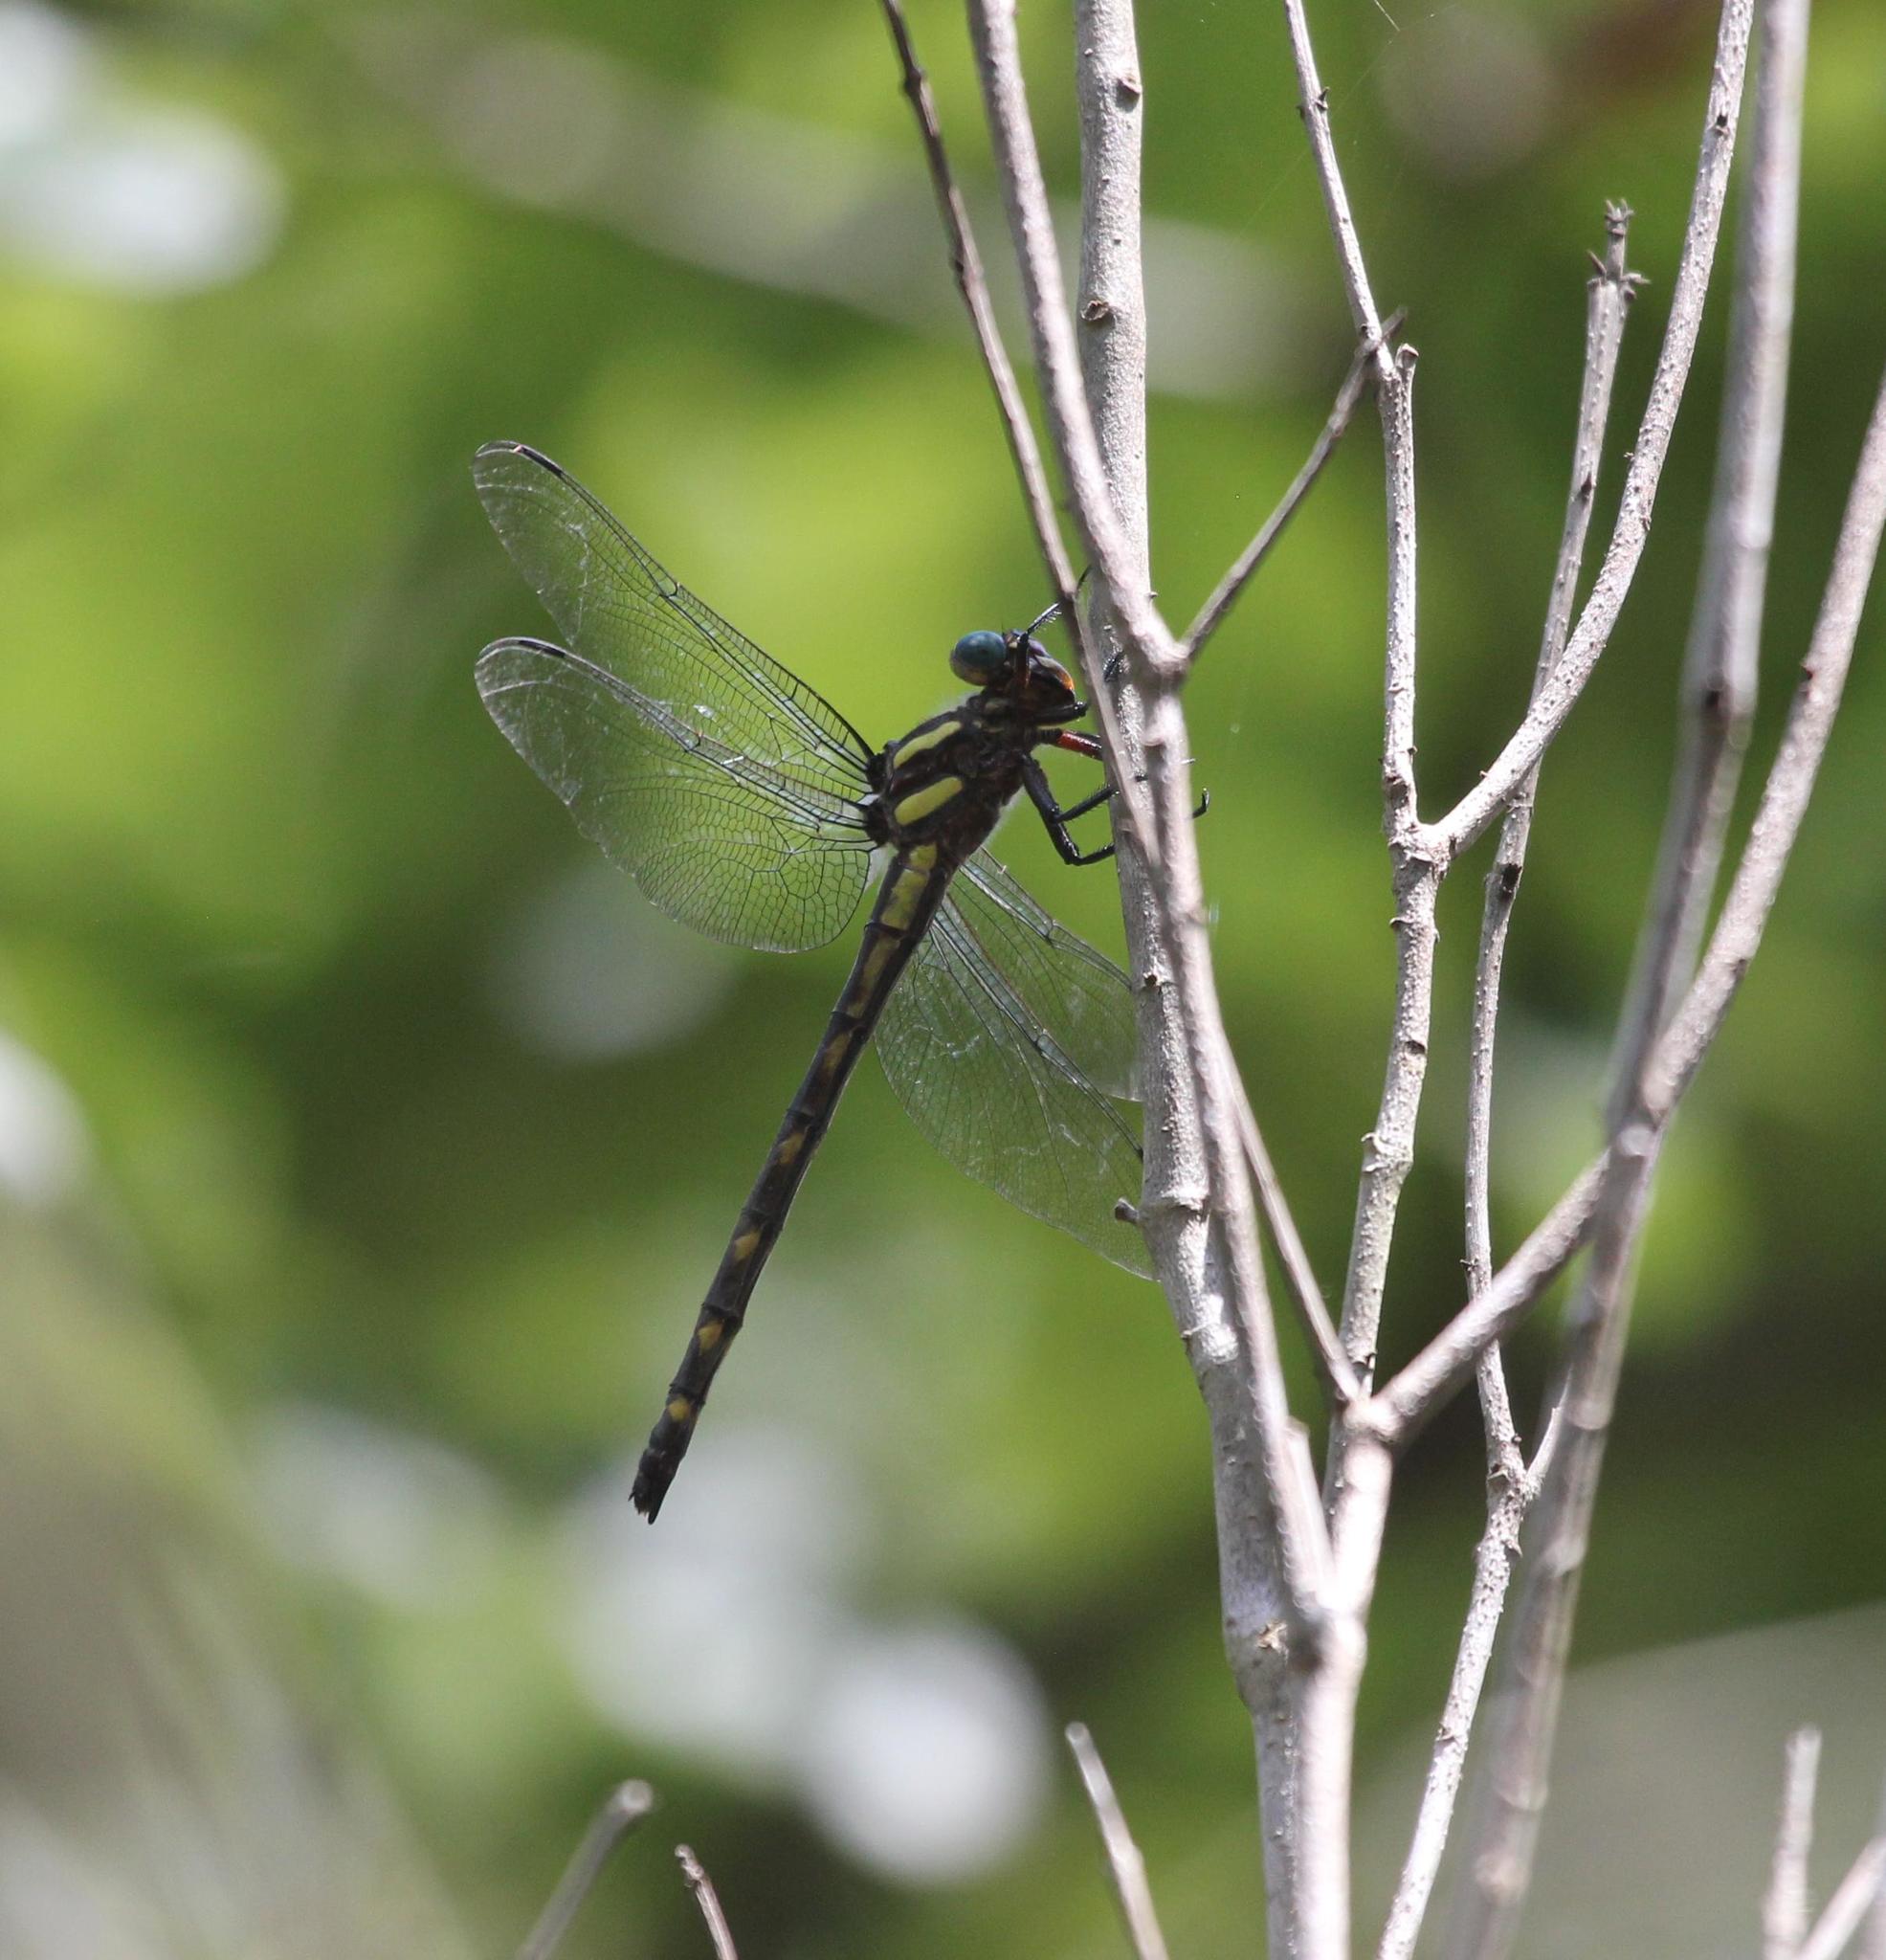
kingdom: Animalia
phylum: Arthropoda
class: Insecta
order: Odonata
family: Cordulegastridae
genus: Cordulegaster
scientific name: Cordulegaster obliqua
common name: Arrowhead spiketail
